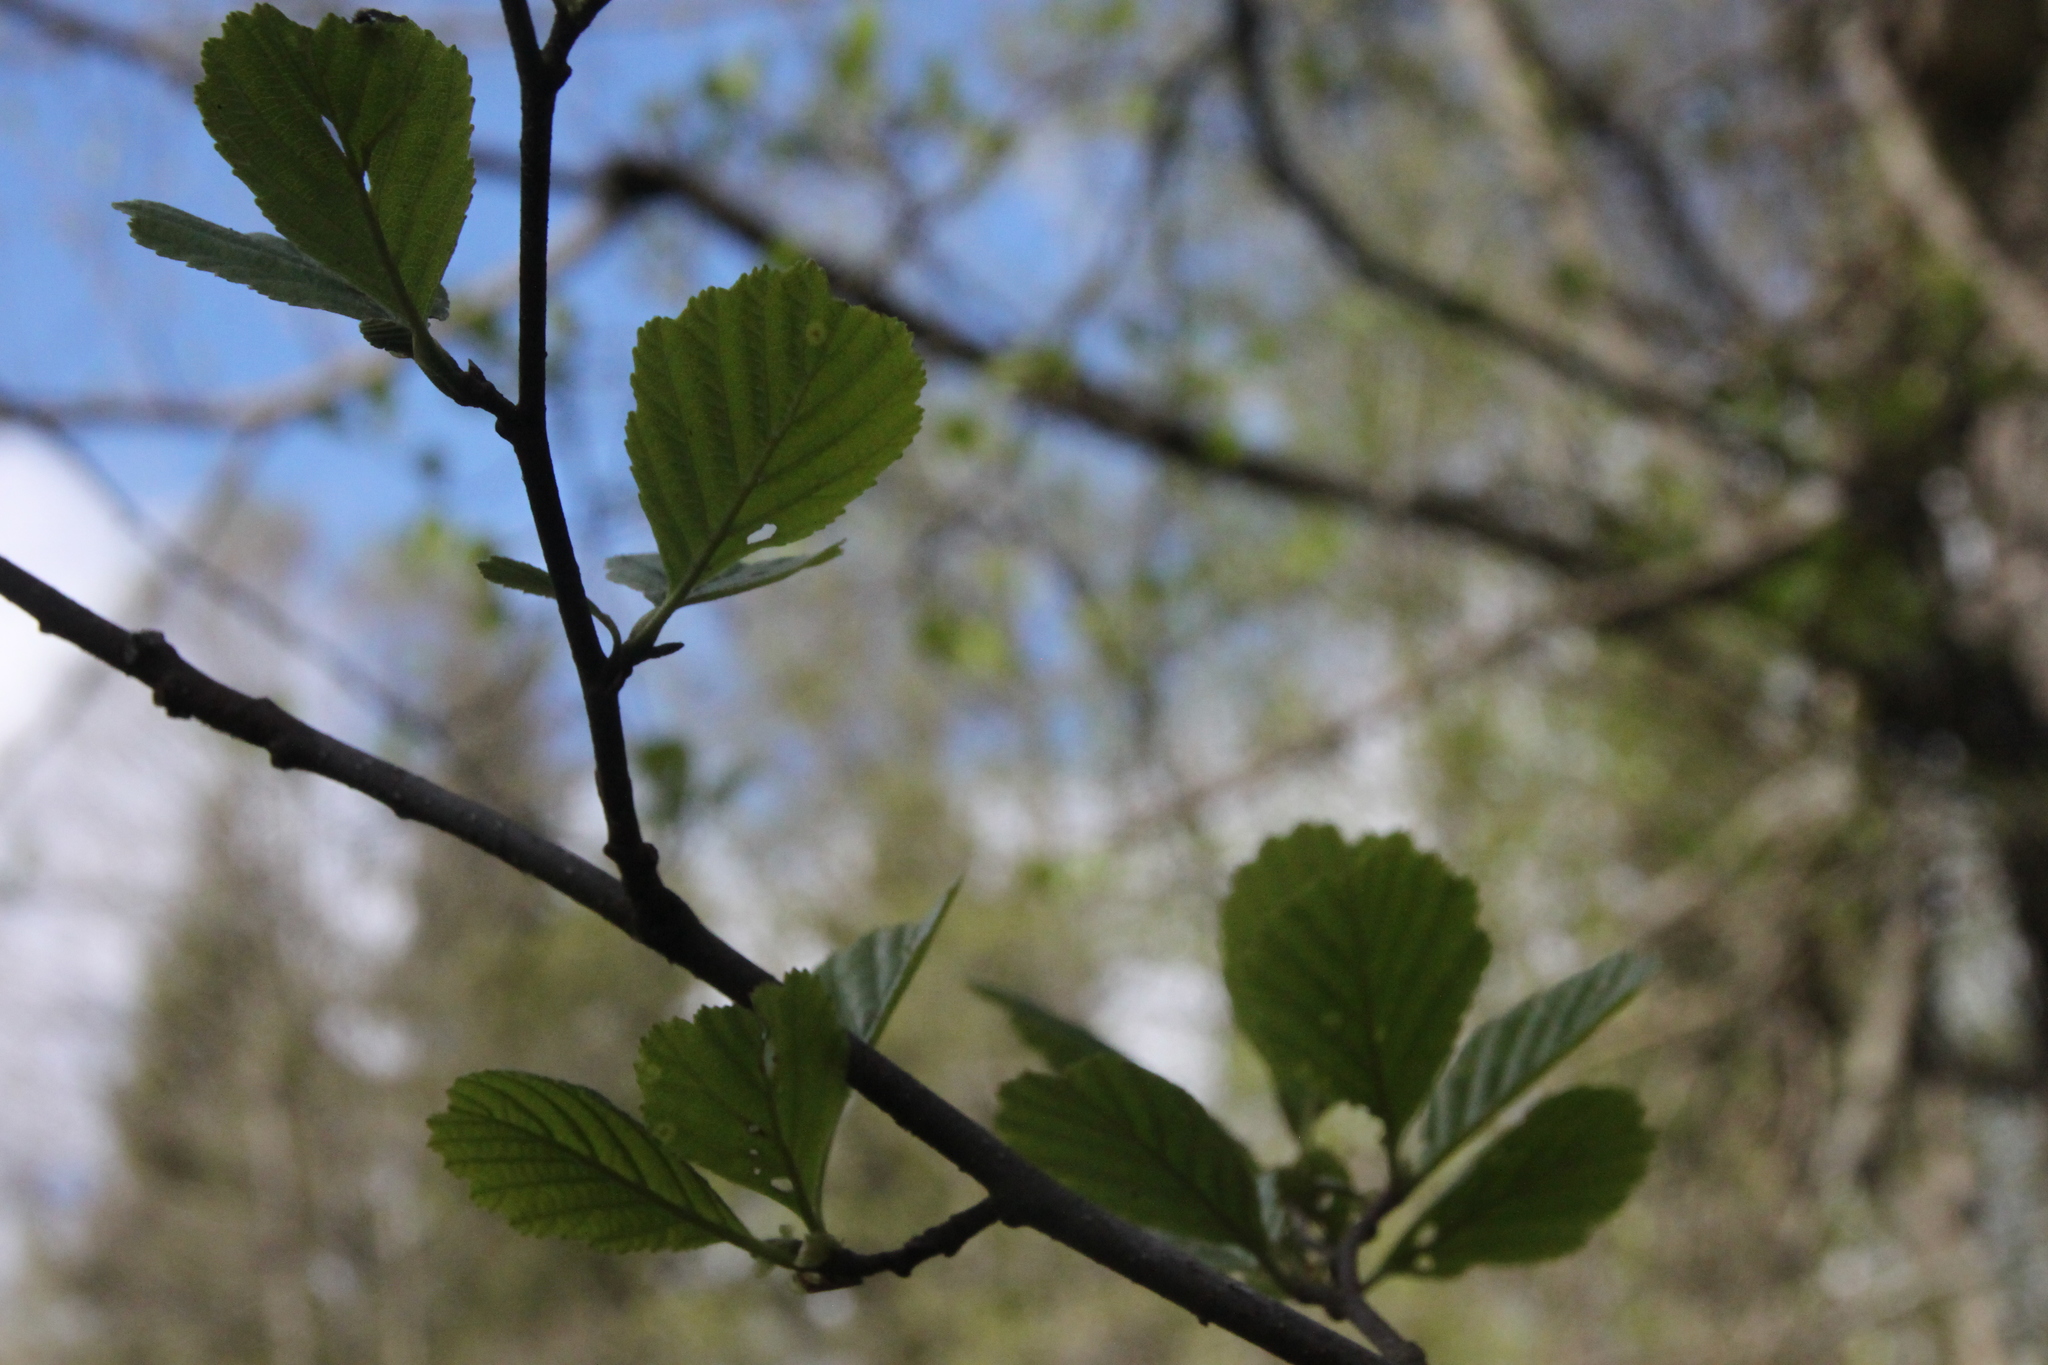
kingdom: Plantae
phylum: Tracheophyta
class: Magnoliopsida
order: Fagales
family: Betulaceae
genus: Alnus
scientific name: Alnus glutinosa
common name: Black alder
